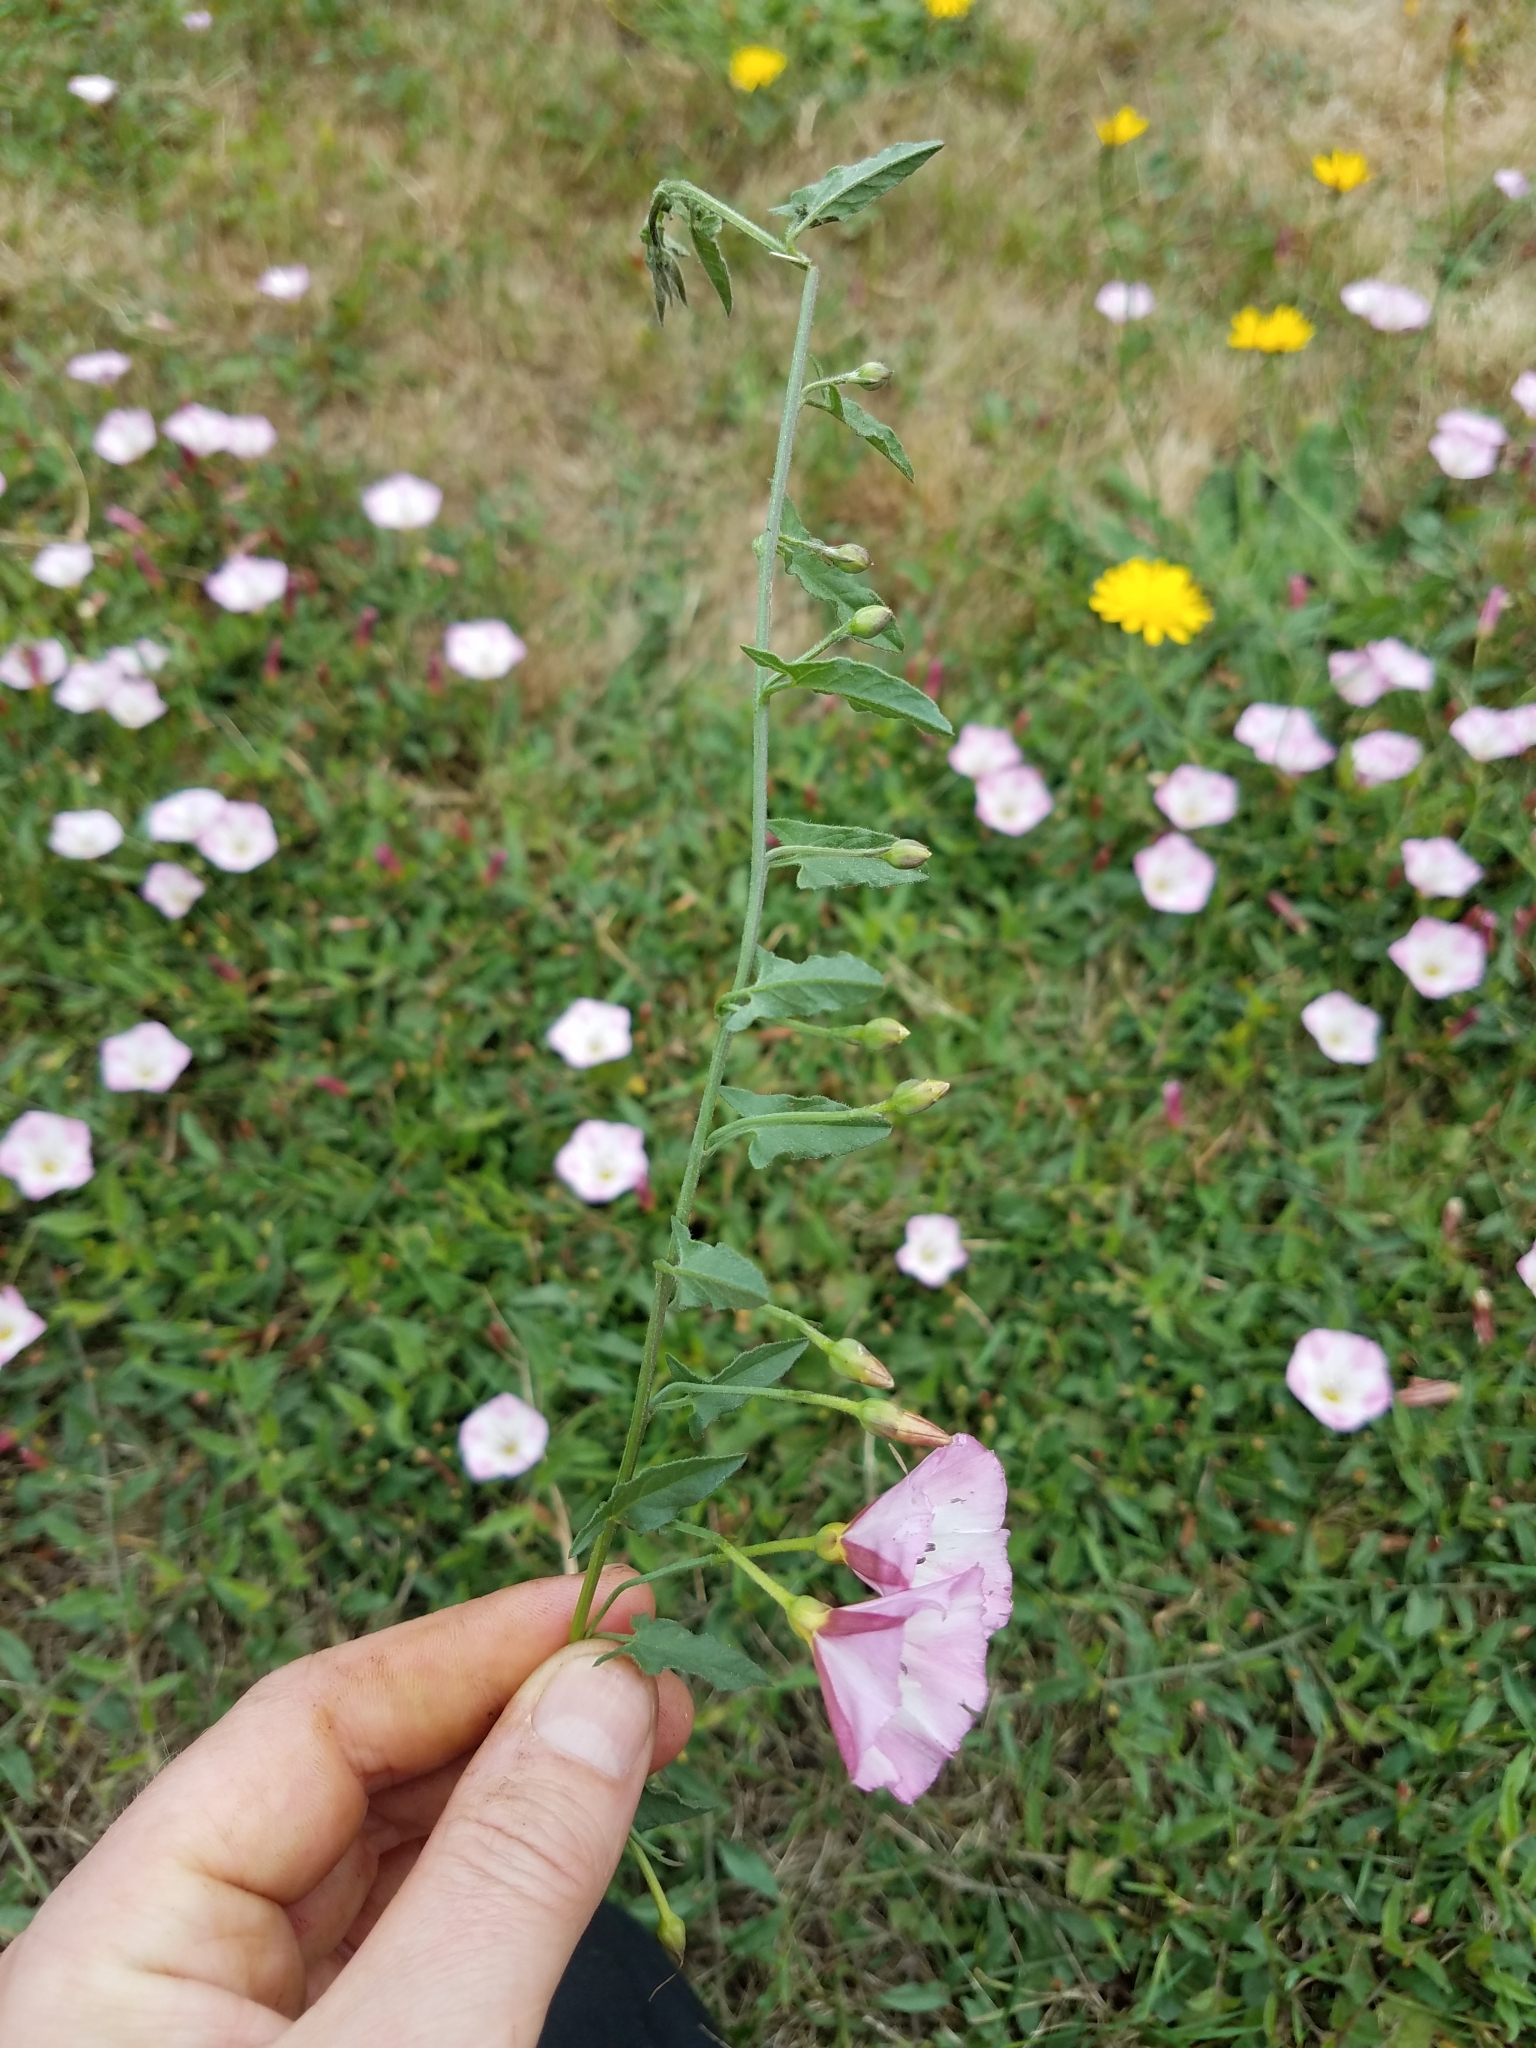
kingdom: Plantae
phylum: Tracheophyta
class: Magnoliopsida
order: Solanales
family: Convolvulaceae
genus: Convolvulus
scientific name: Convolvulus arvensis
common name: Field bindweed
